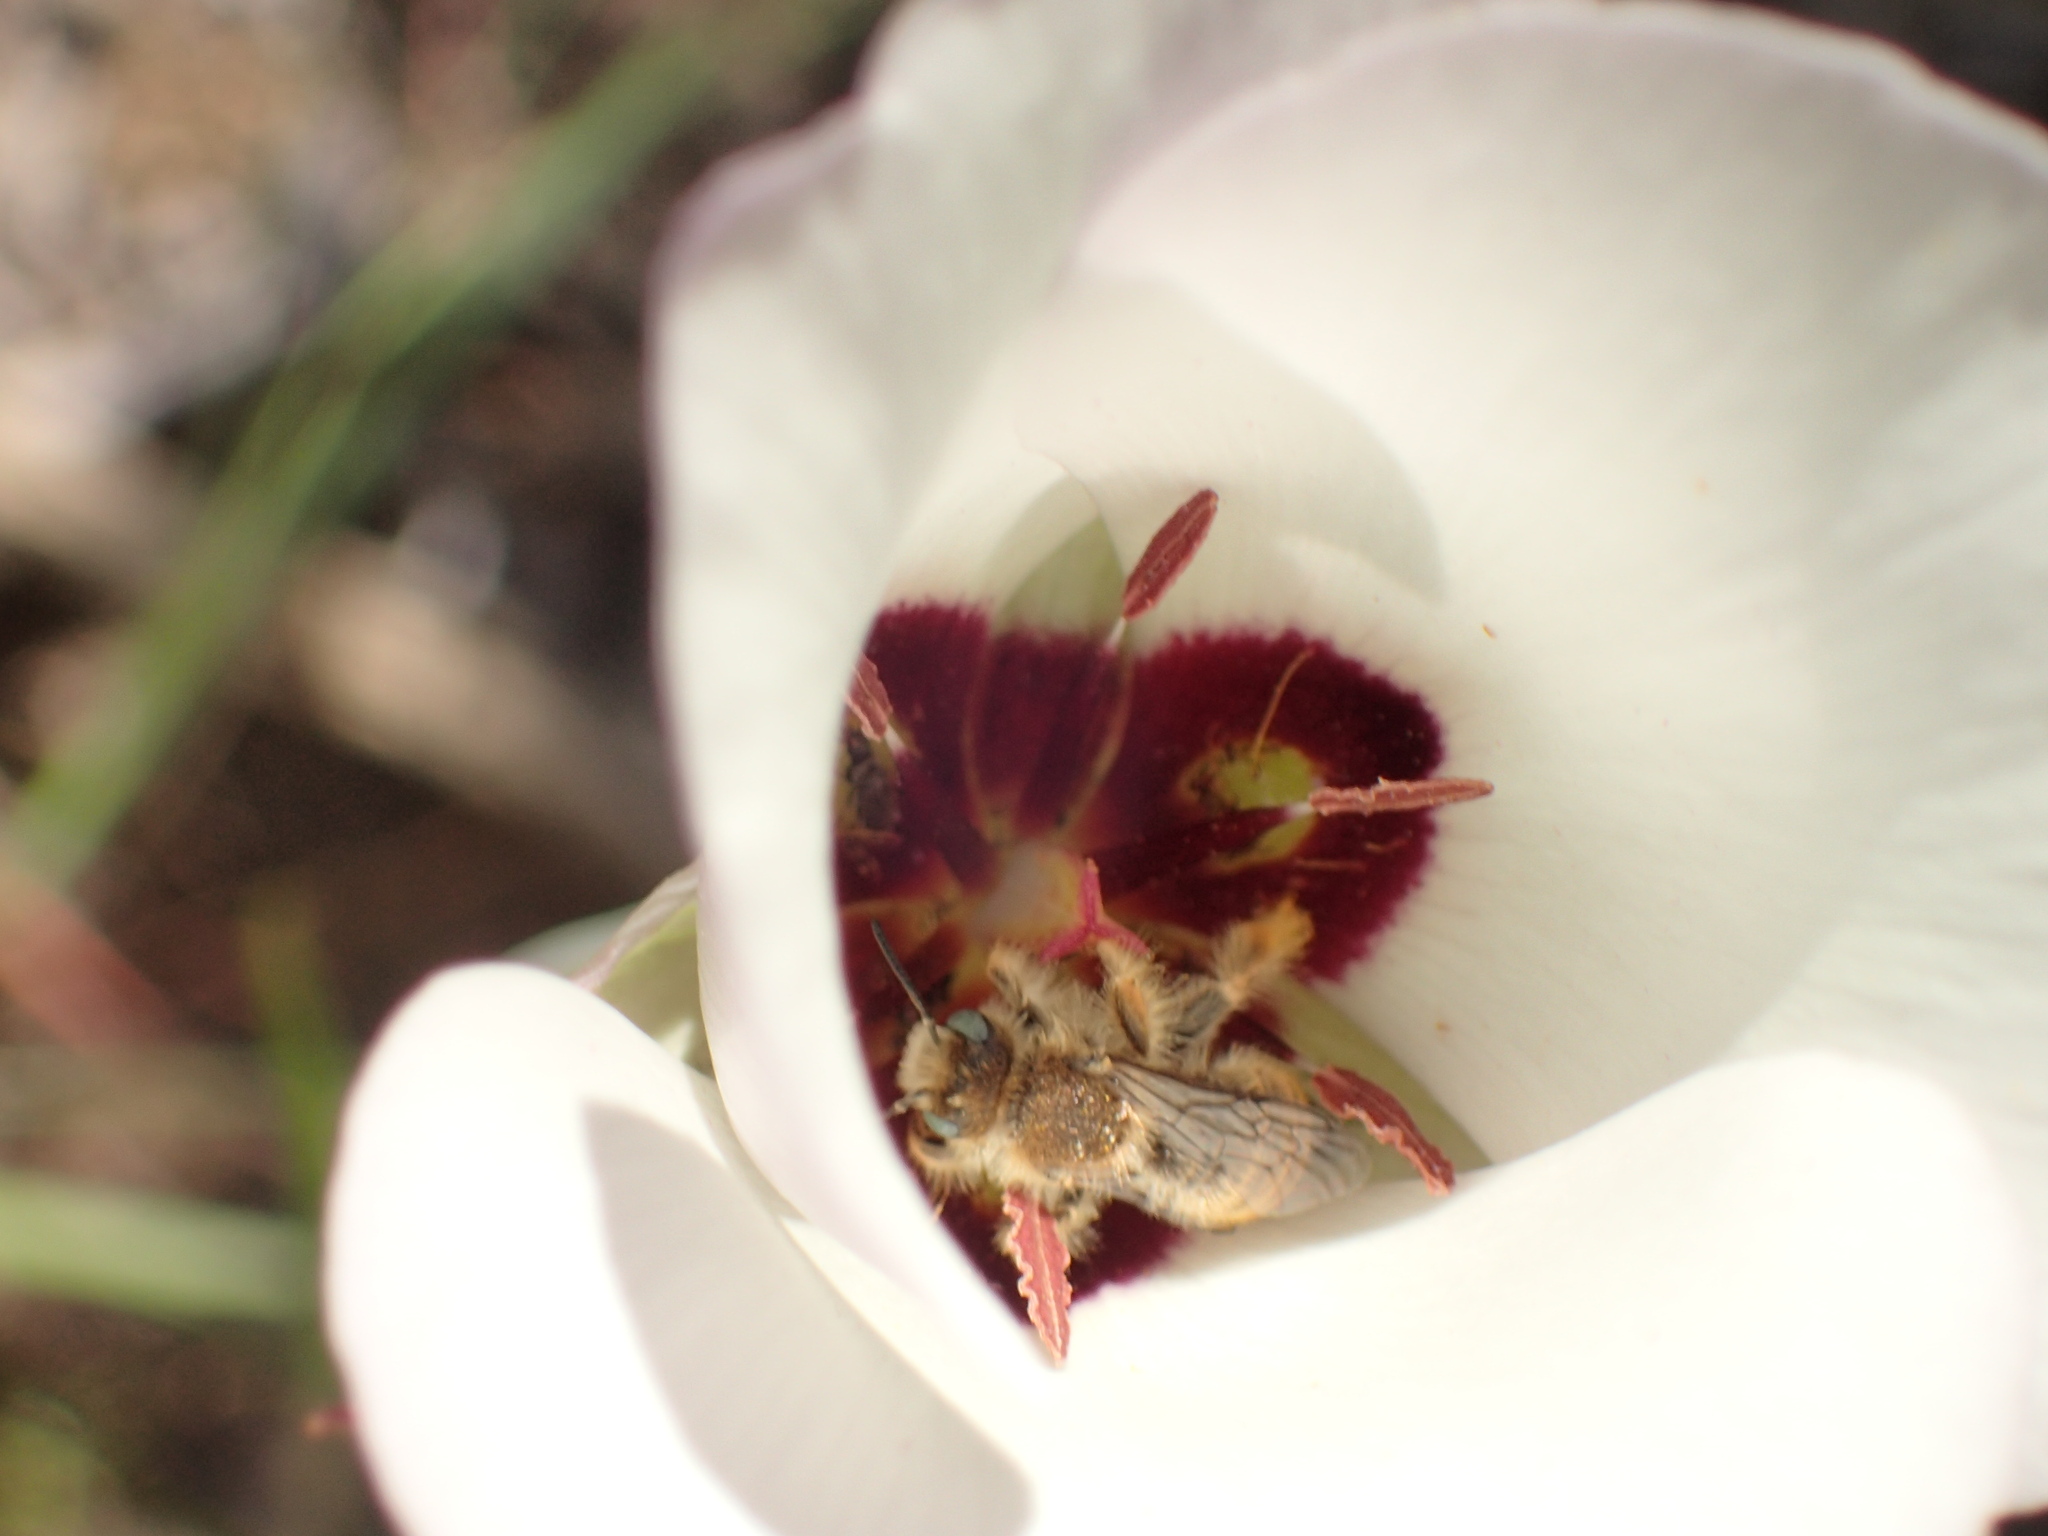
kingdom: Plantae
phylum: Tracheophyta
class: Liliopsida
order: Liliales
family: Liliaceae
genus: Calochortus
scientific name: Calochortus catalinae
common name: Catalina mariposa-lily
